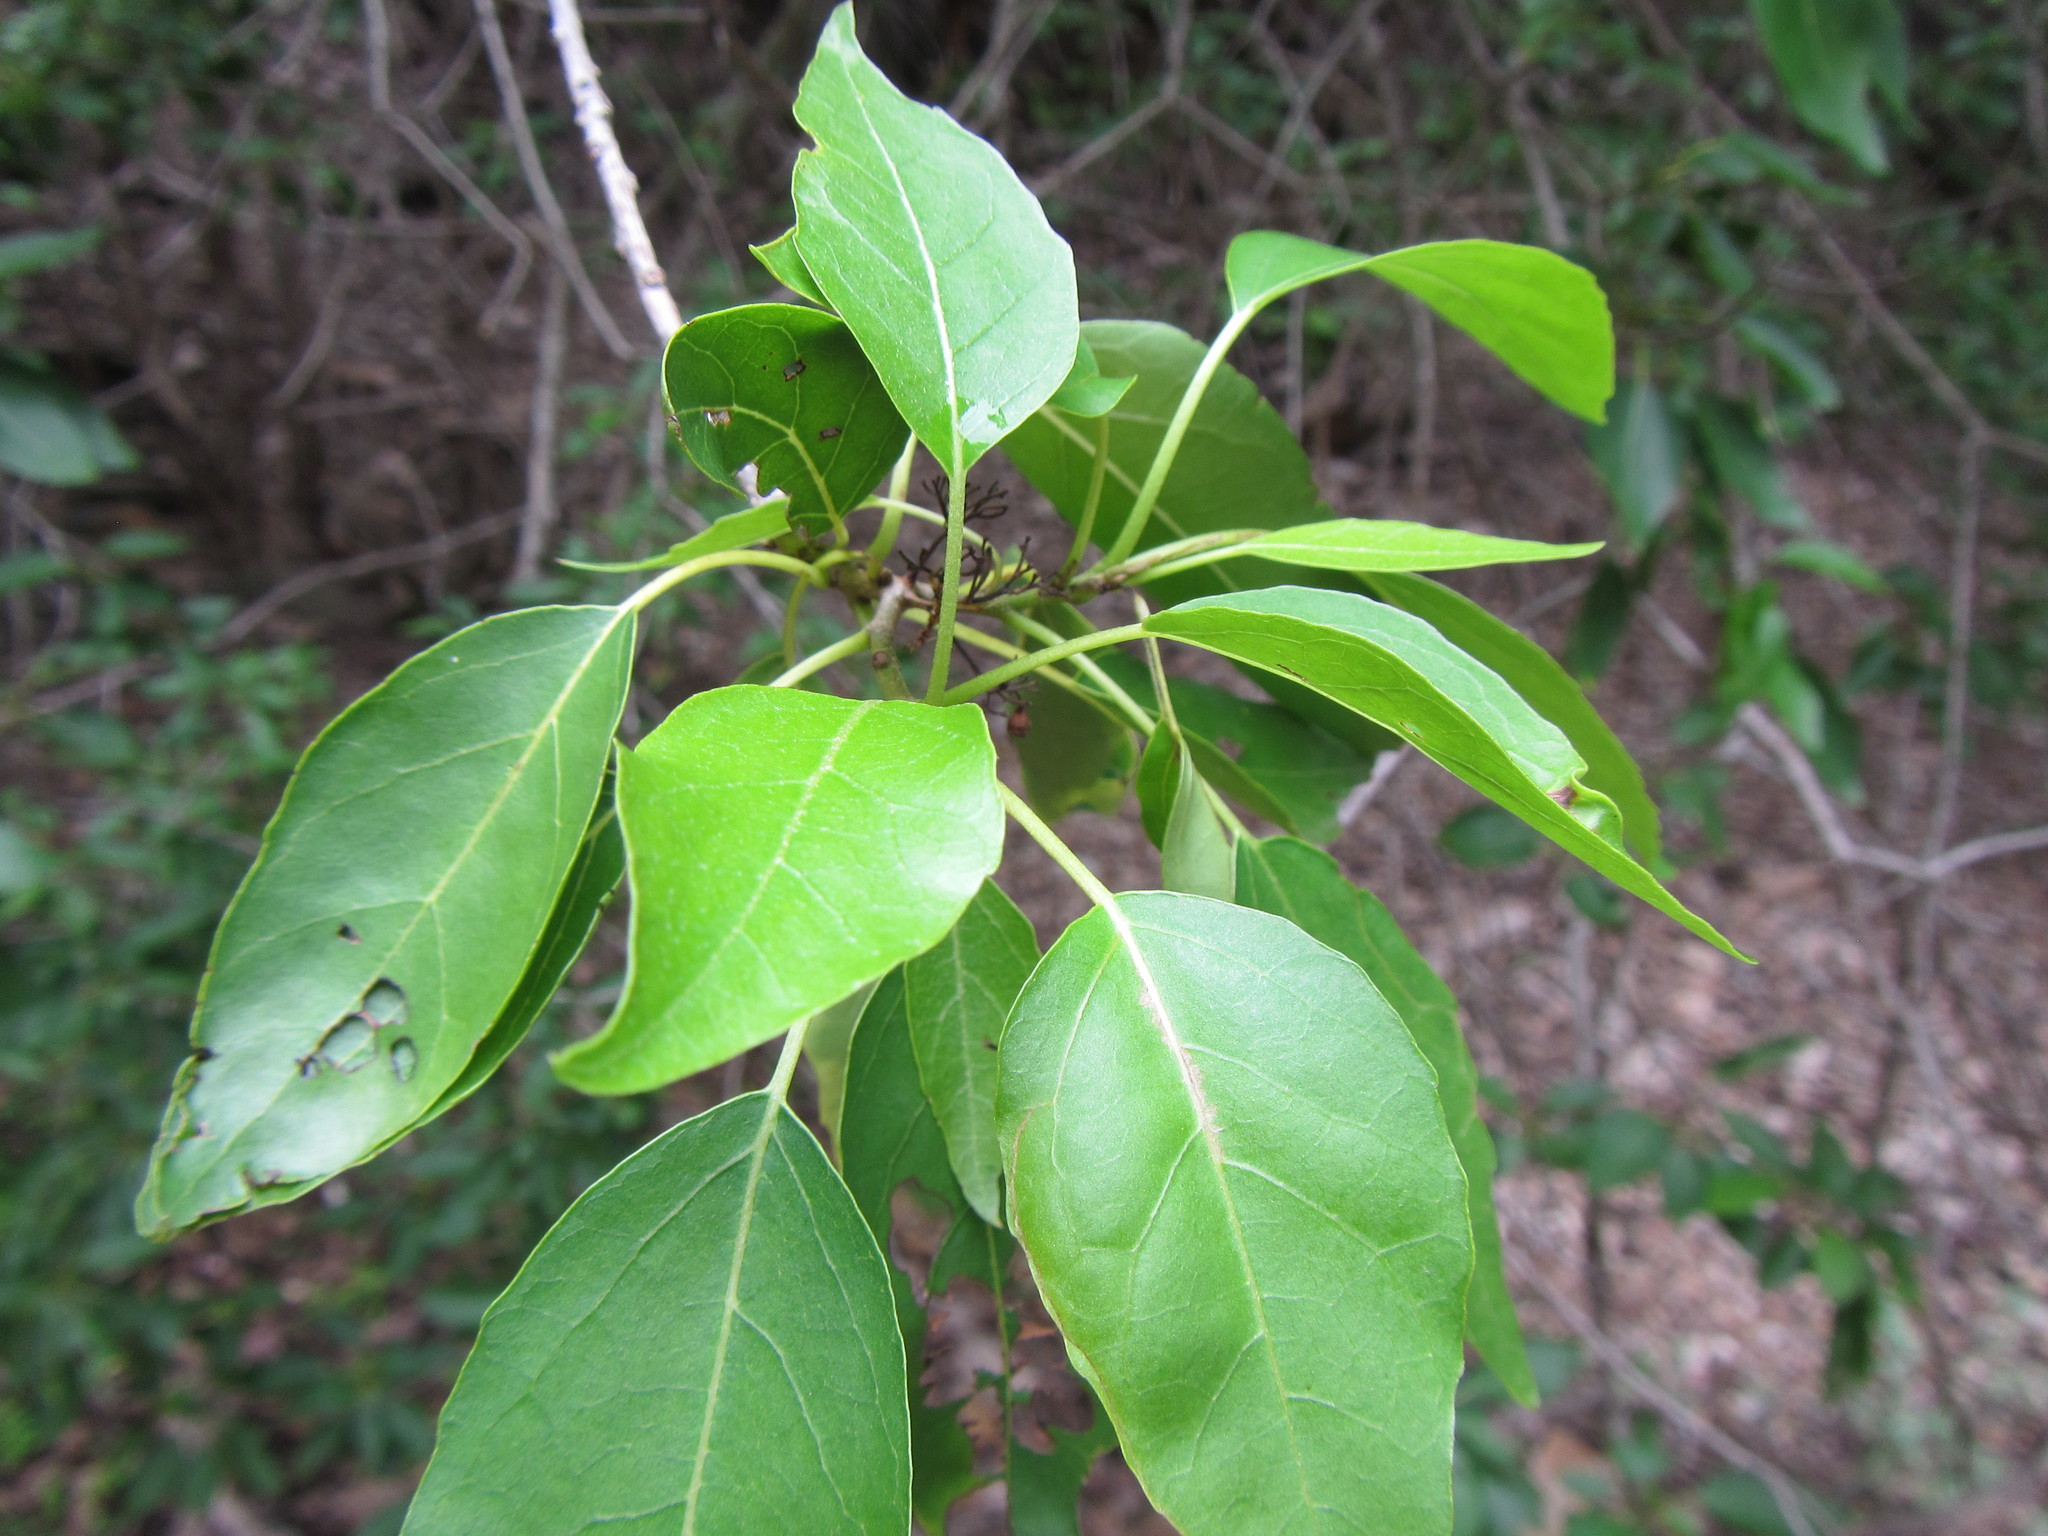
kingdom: Plantae
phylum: Tracheophyta
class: Magnoliopsida
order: Boraginales
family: Cordiaceae
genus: Cordia
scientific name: Cordia caffra
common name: Septee tree
